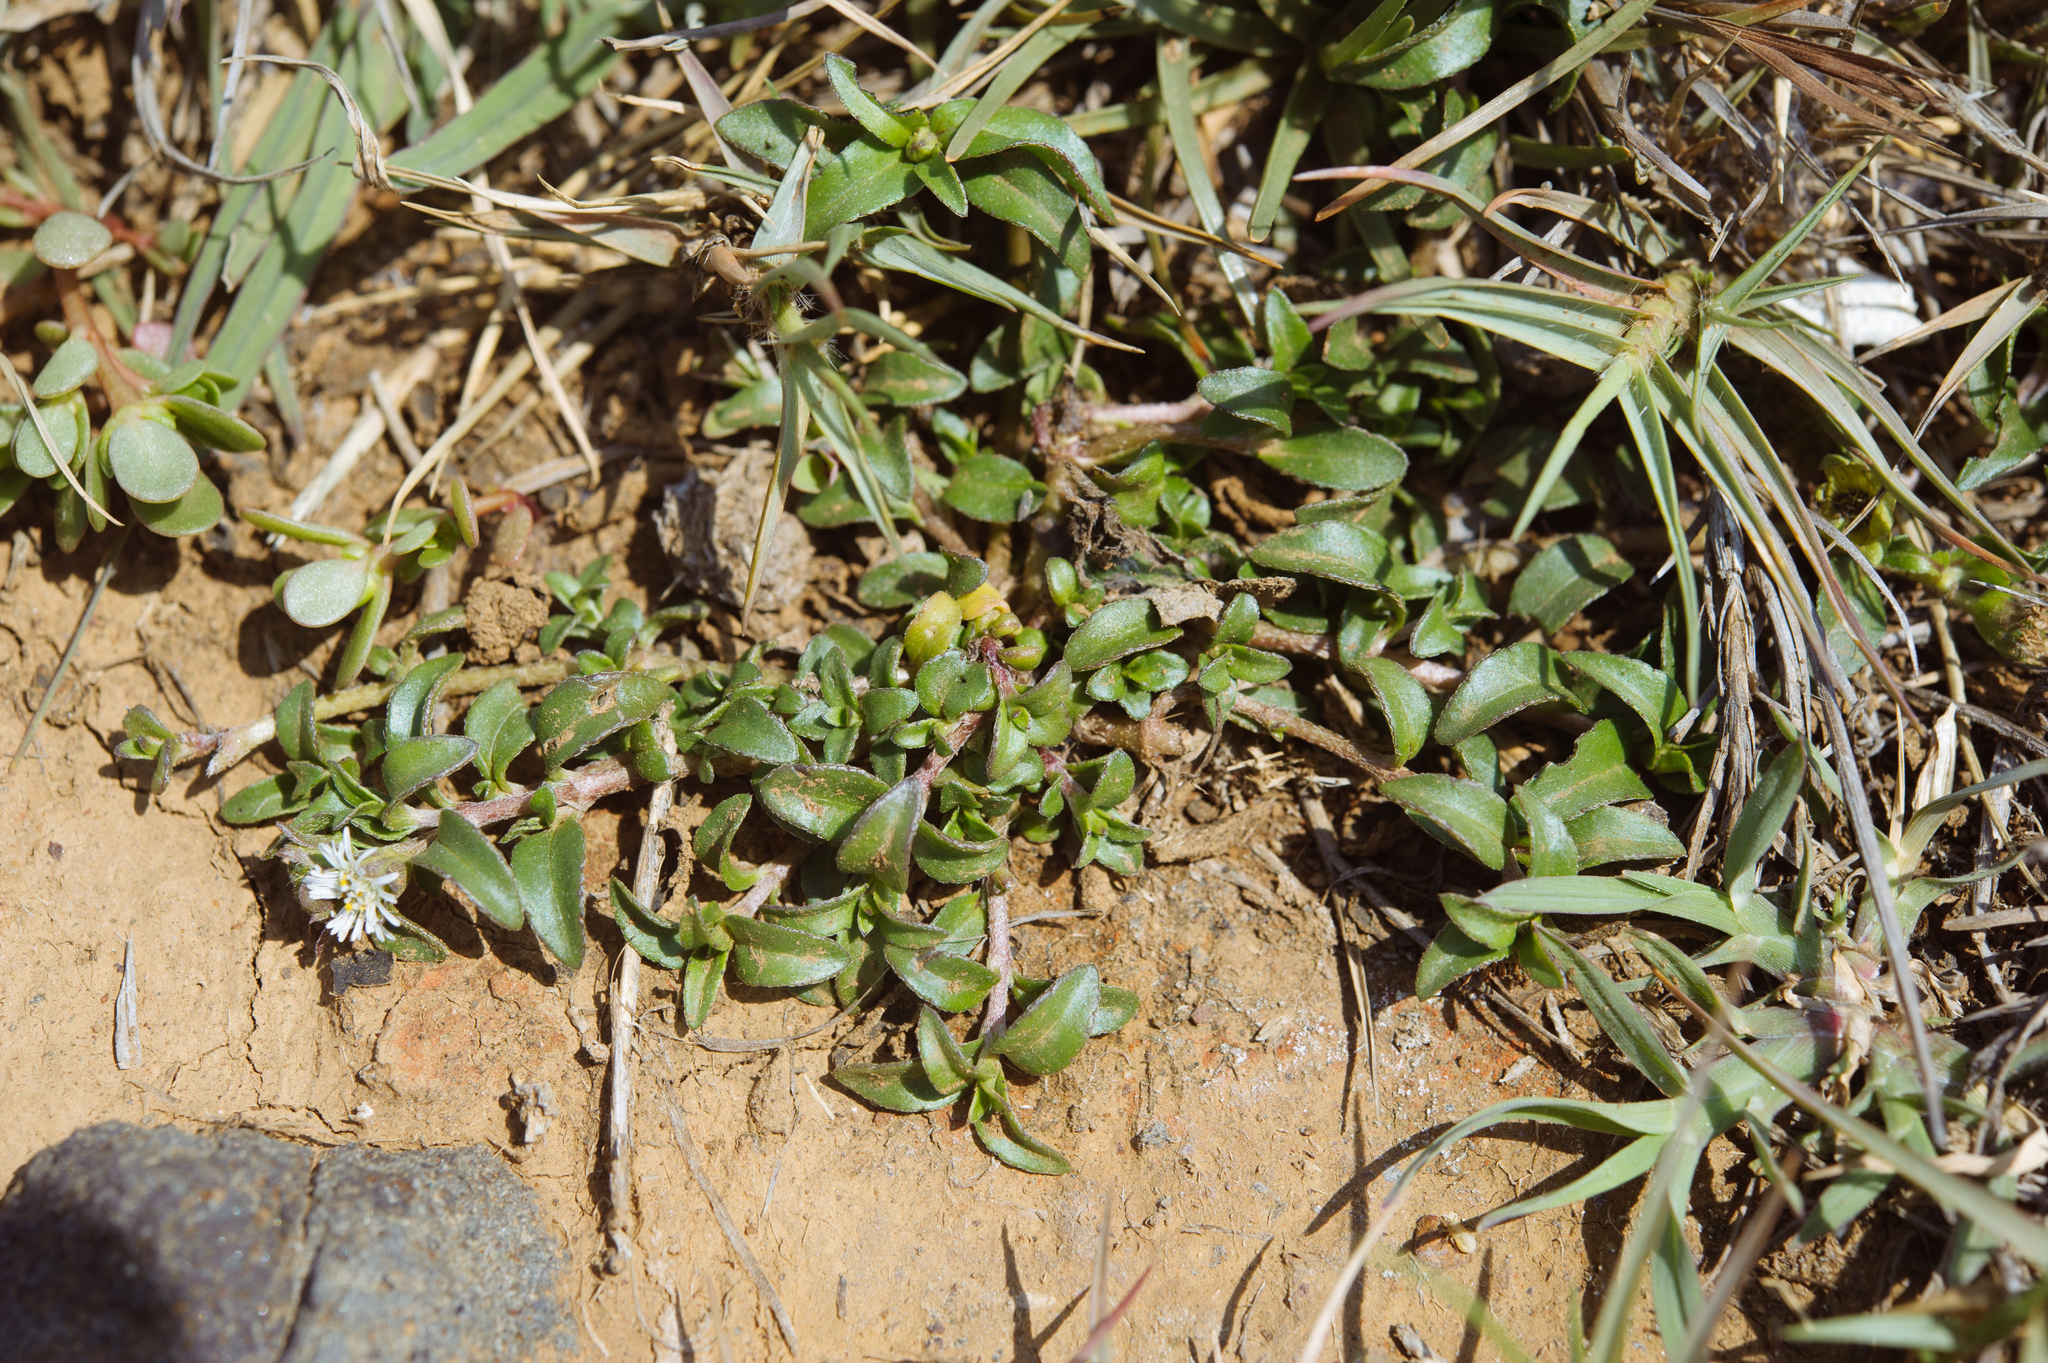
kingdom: Plantae
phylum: Tracheophyta
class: Magnoliopsida
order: Asterales
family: Asteraceae
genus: Eclipta
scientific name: Eclipta prostrata
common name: False daisy
